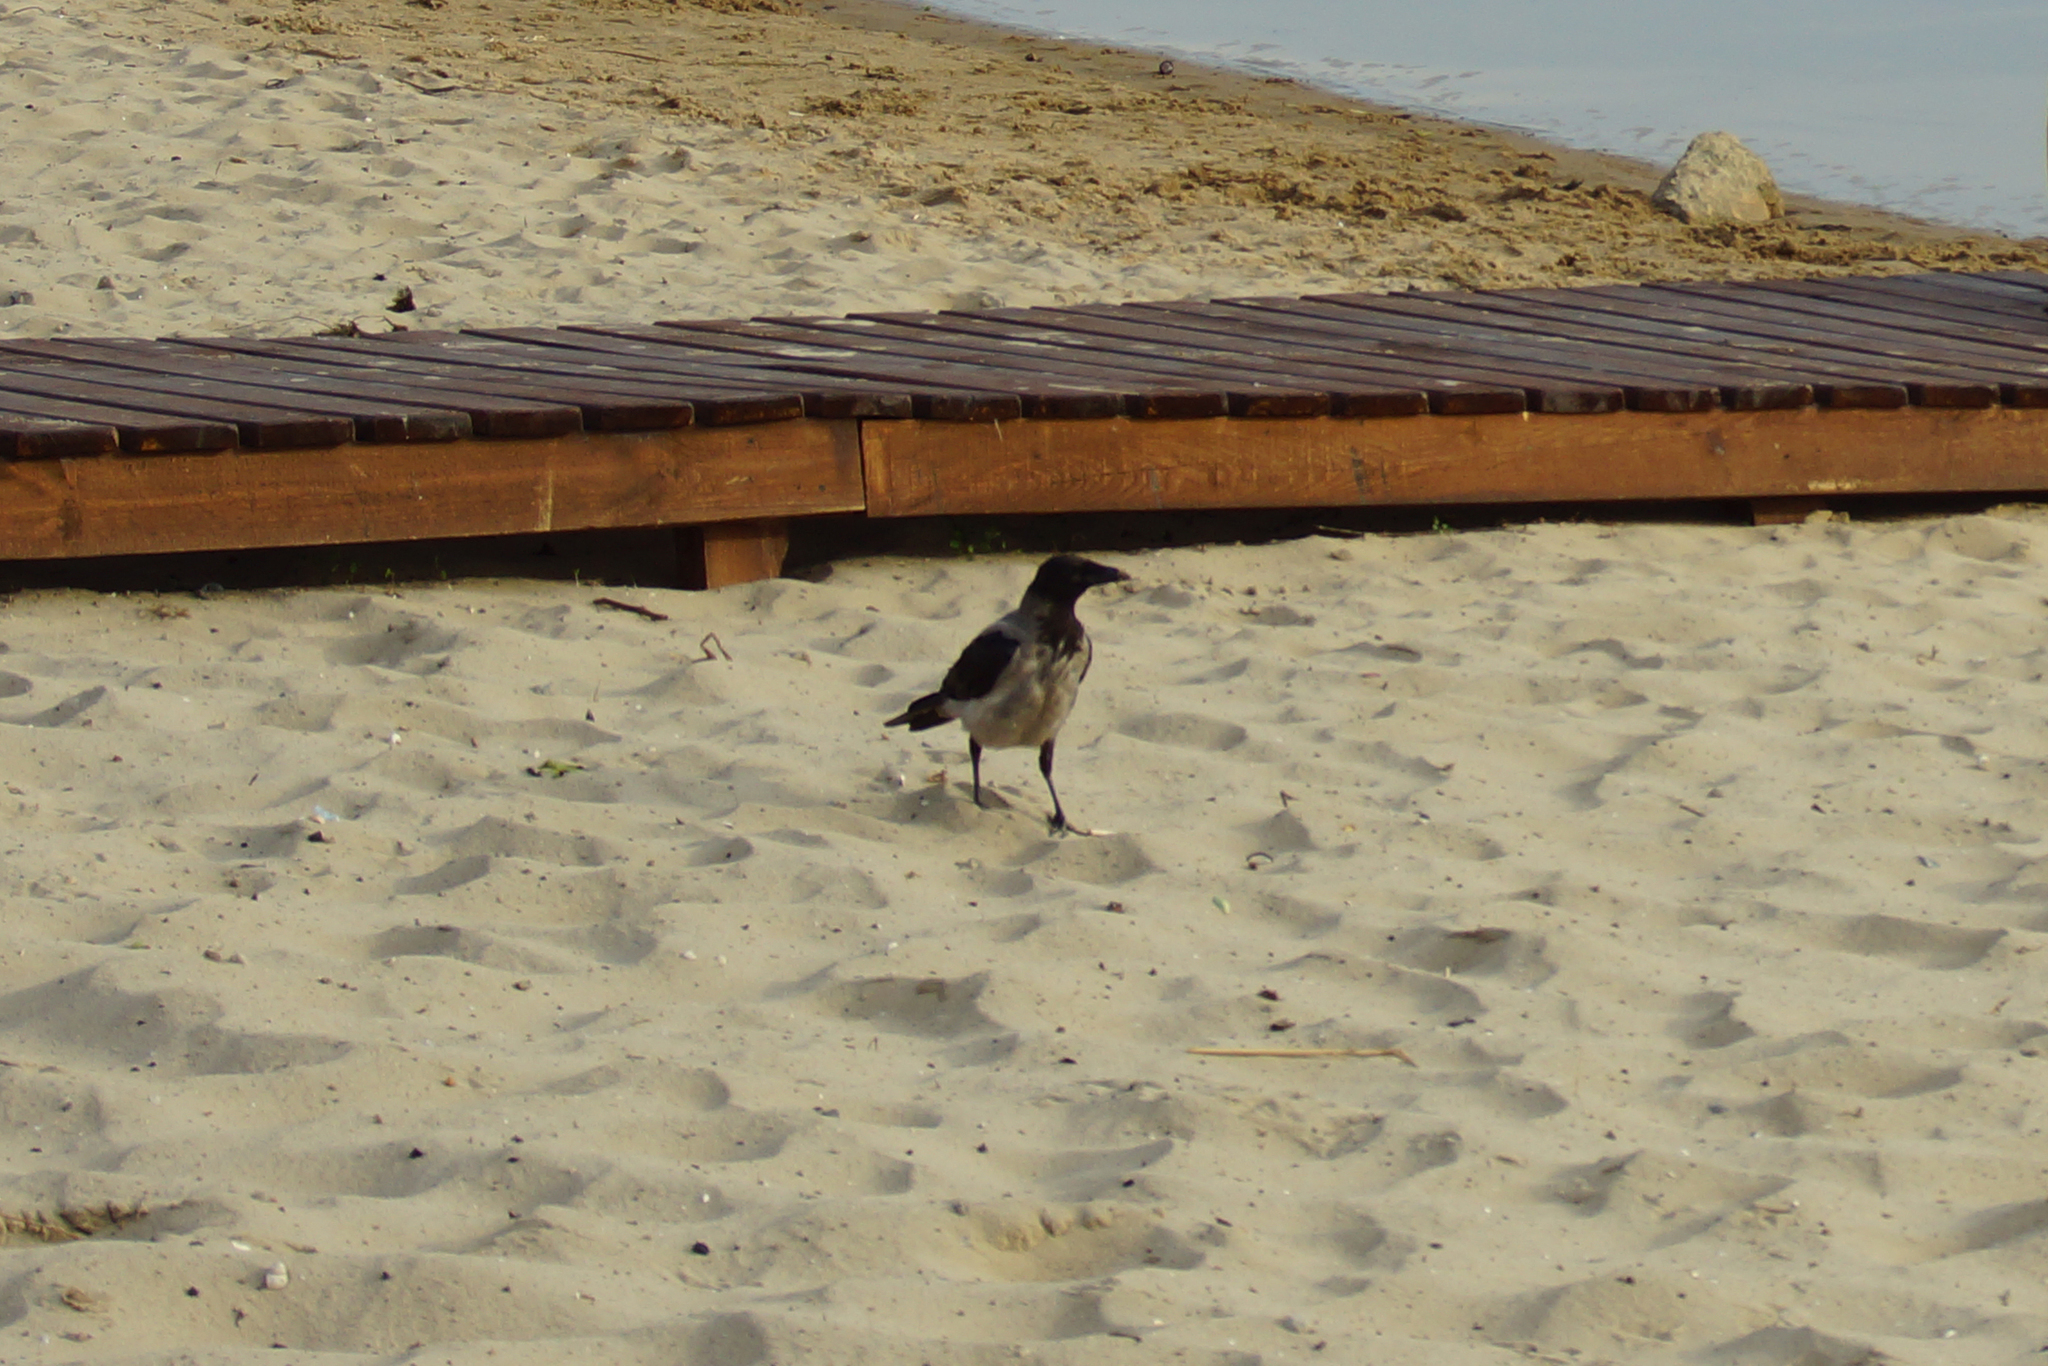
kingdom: Animalia
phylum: Chordata
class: Aves
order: Passeriformes
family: Corvidae
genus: Corvus
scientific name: Corvus cornix
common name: Hooded crow
